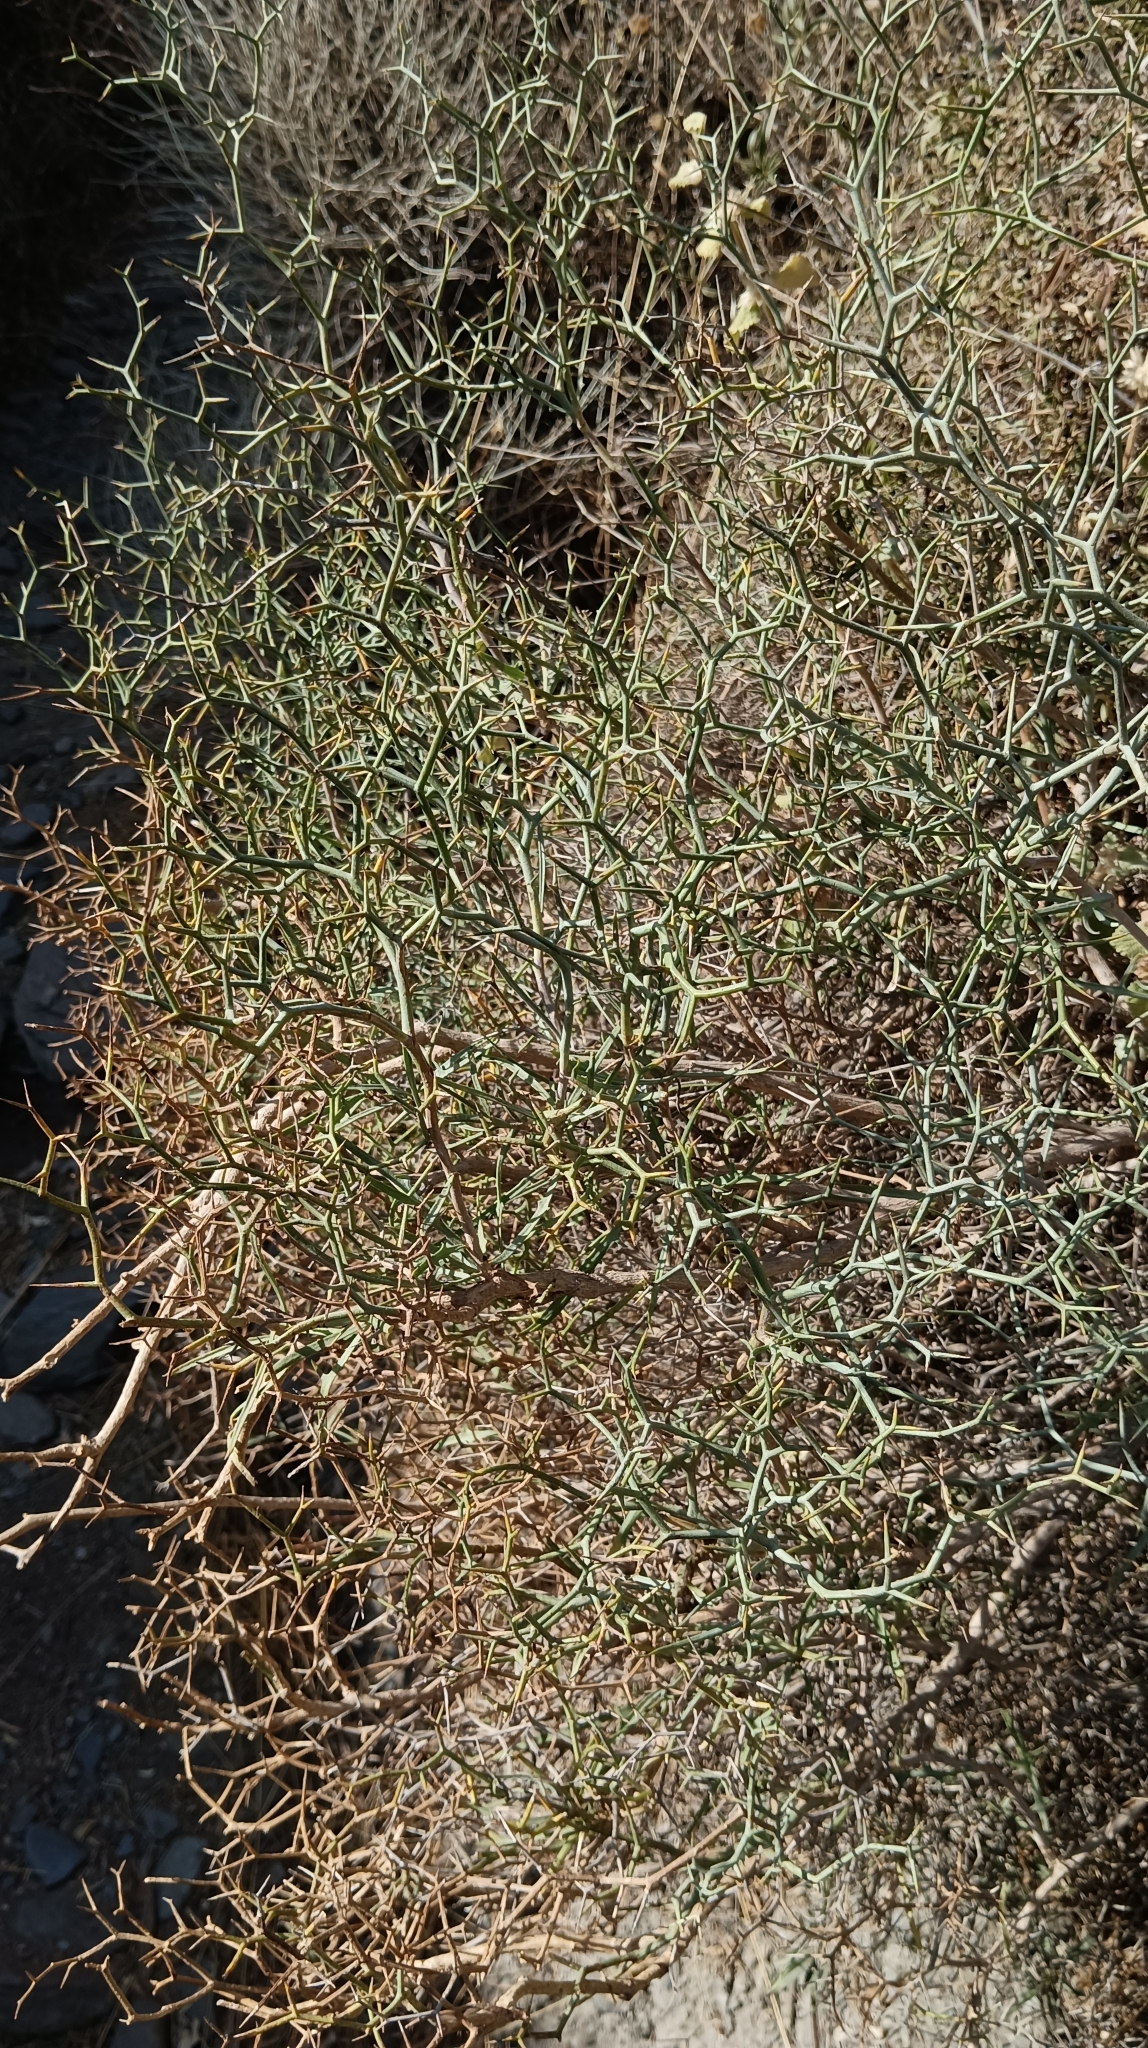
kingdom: Plantae
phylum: Tracheophyta
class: Magnoliopsida
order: Asterales
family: Asteraceae
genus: Launaea
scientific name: Launaea arborescens
